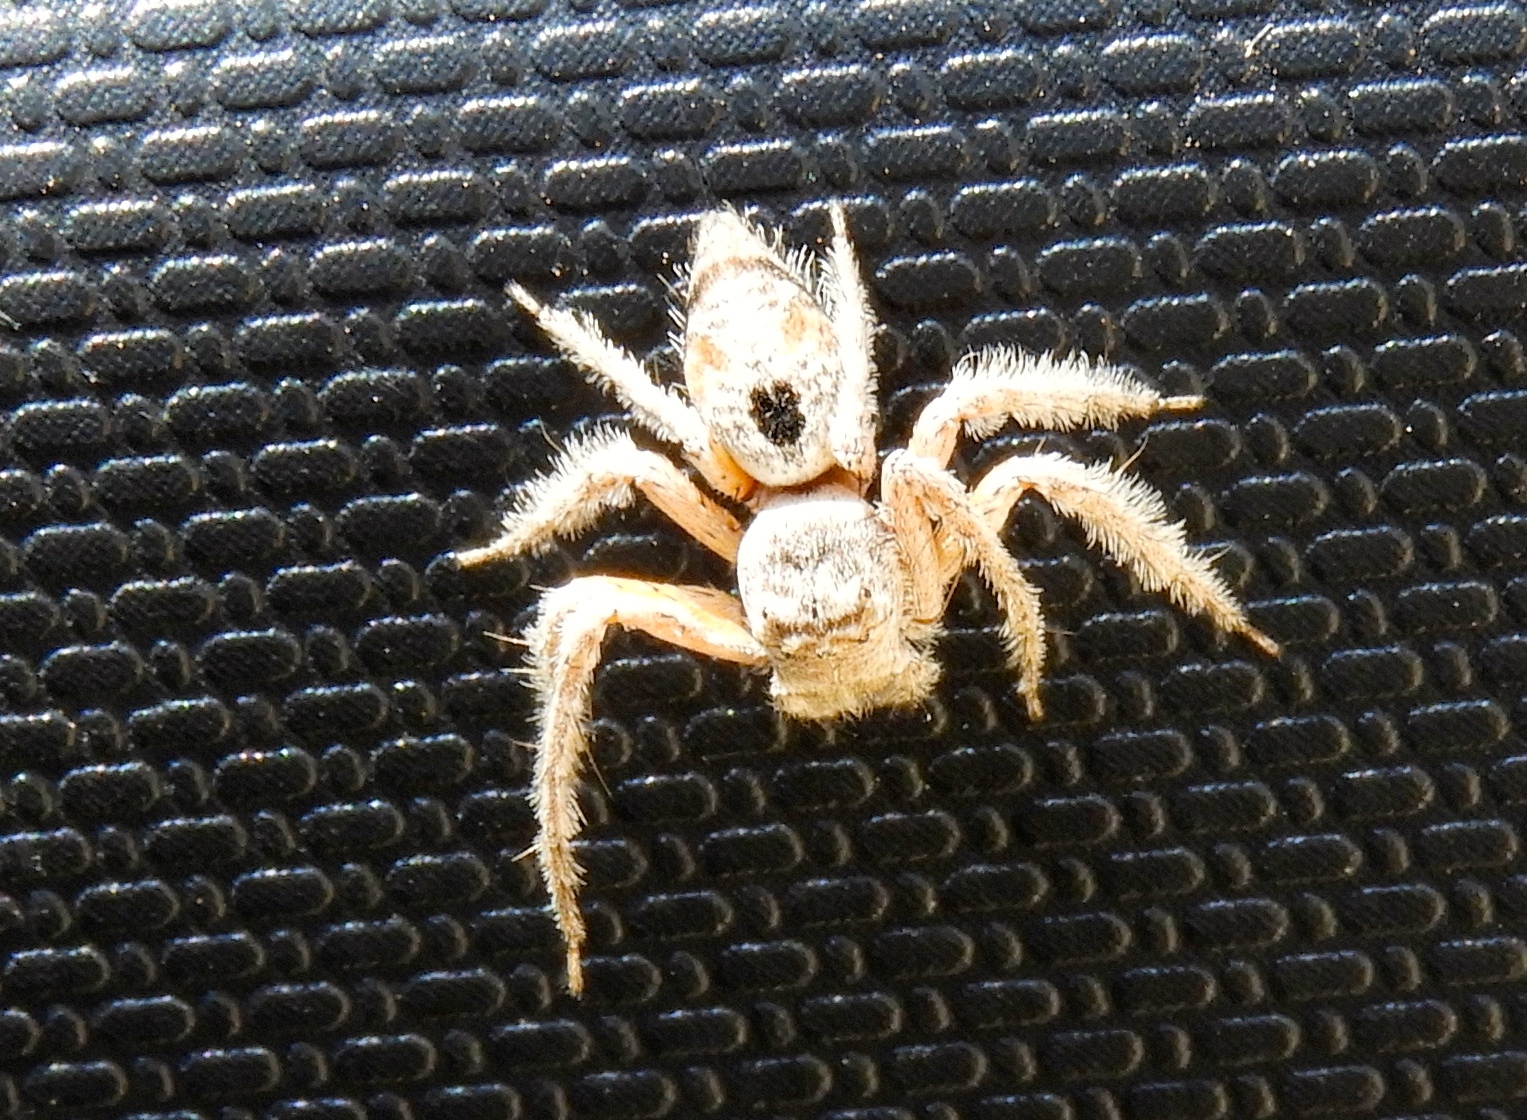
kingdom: Animalia
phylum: Arthropoda
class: Arachnida
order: Araneae
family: Oxyopidae
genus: Hamataliwa
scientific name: Hamataliwa
